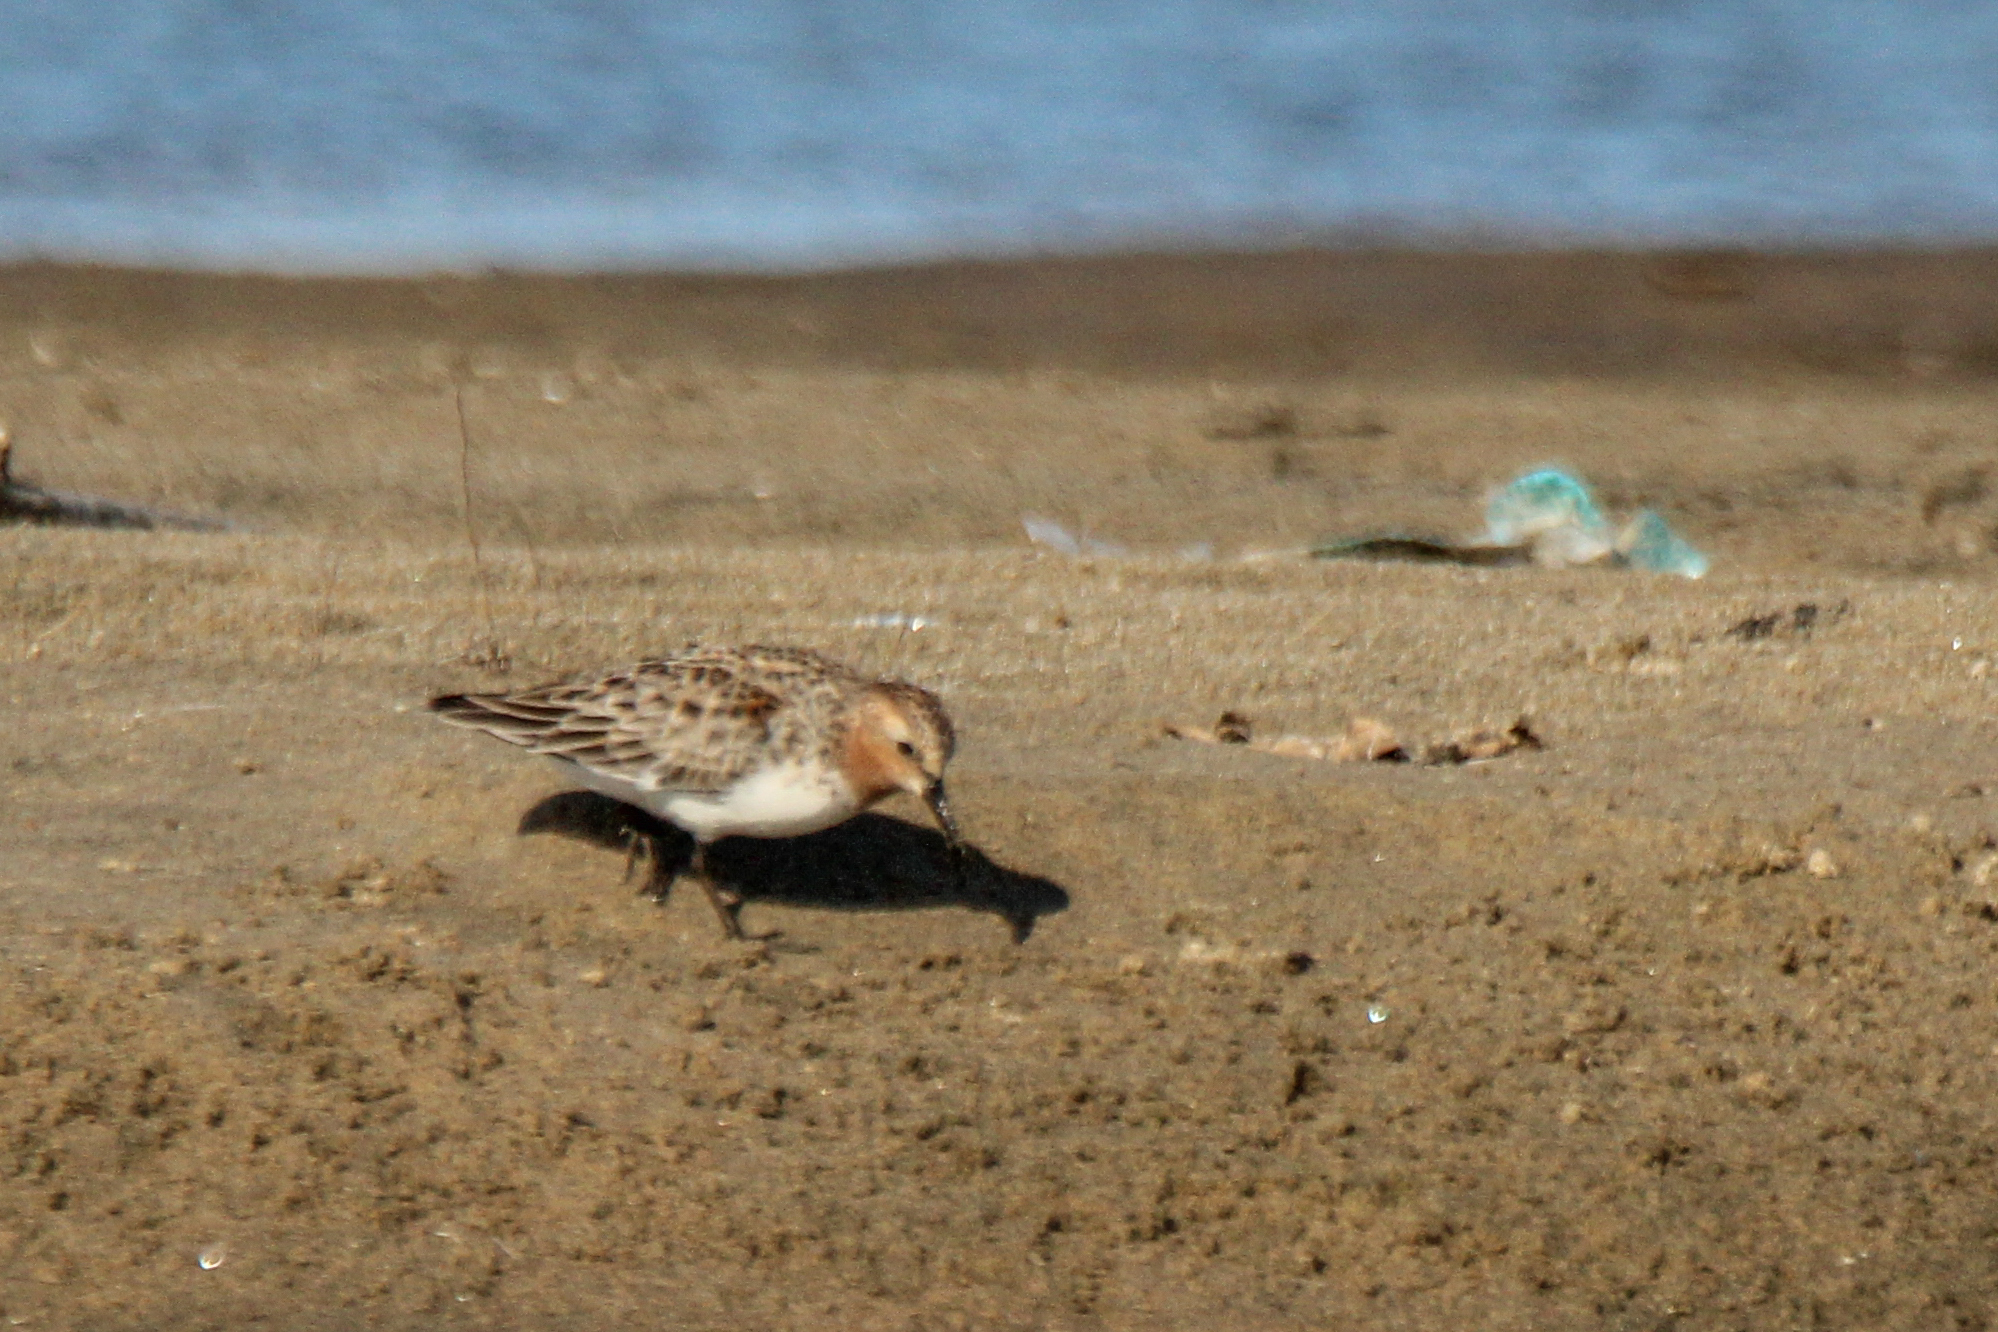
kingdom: Animalia
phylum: Chordata
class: Aves
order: Charadriiformes
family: Scolopacidae
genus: Calidris
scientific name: Calidris ruficollis
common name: Red-necked stint
